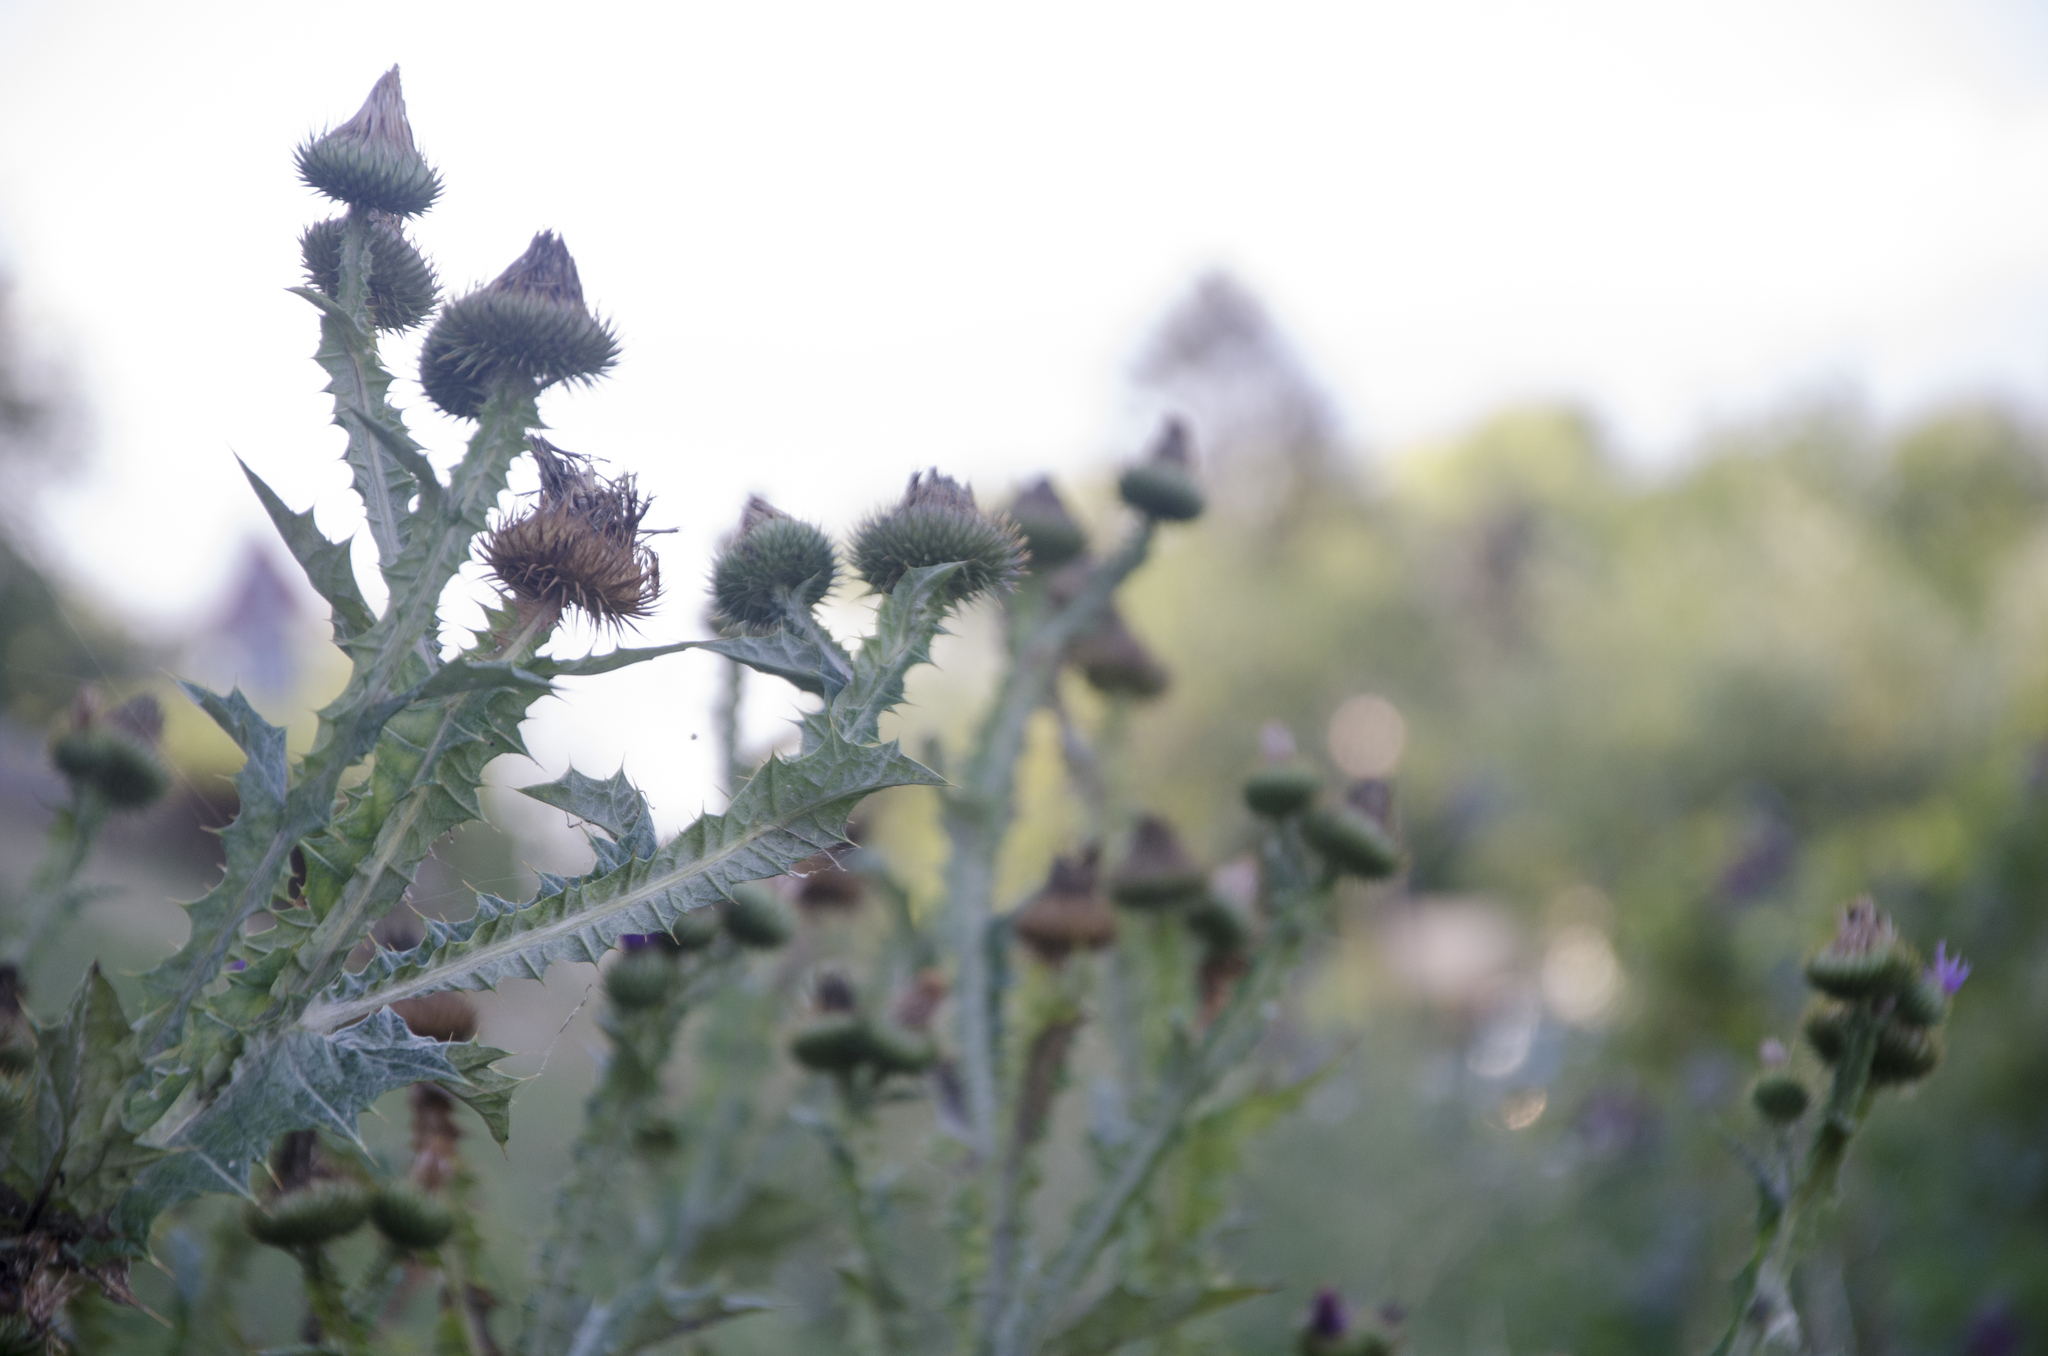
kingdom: Plantae
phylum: Tracheophyta
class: Magnoliopsida
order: Asterales
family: Asteraceae
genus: Onopordum
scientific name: Onopordum acanthium
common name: Scotch thistle
